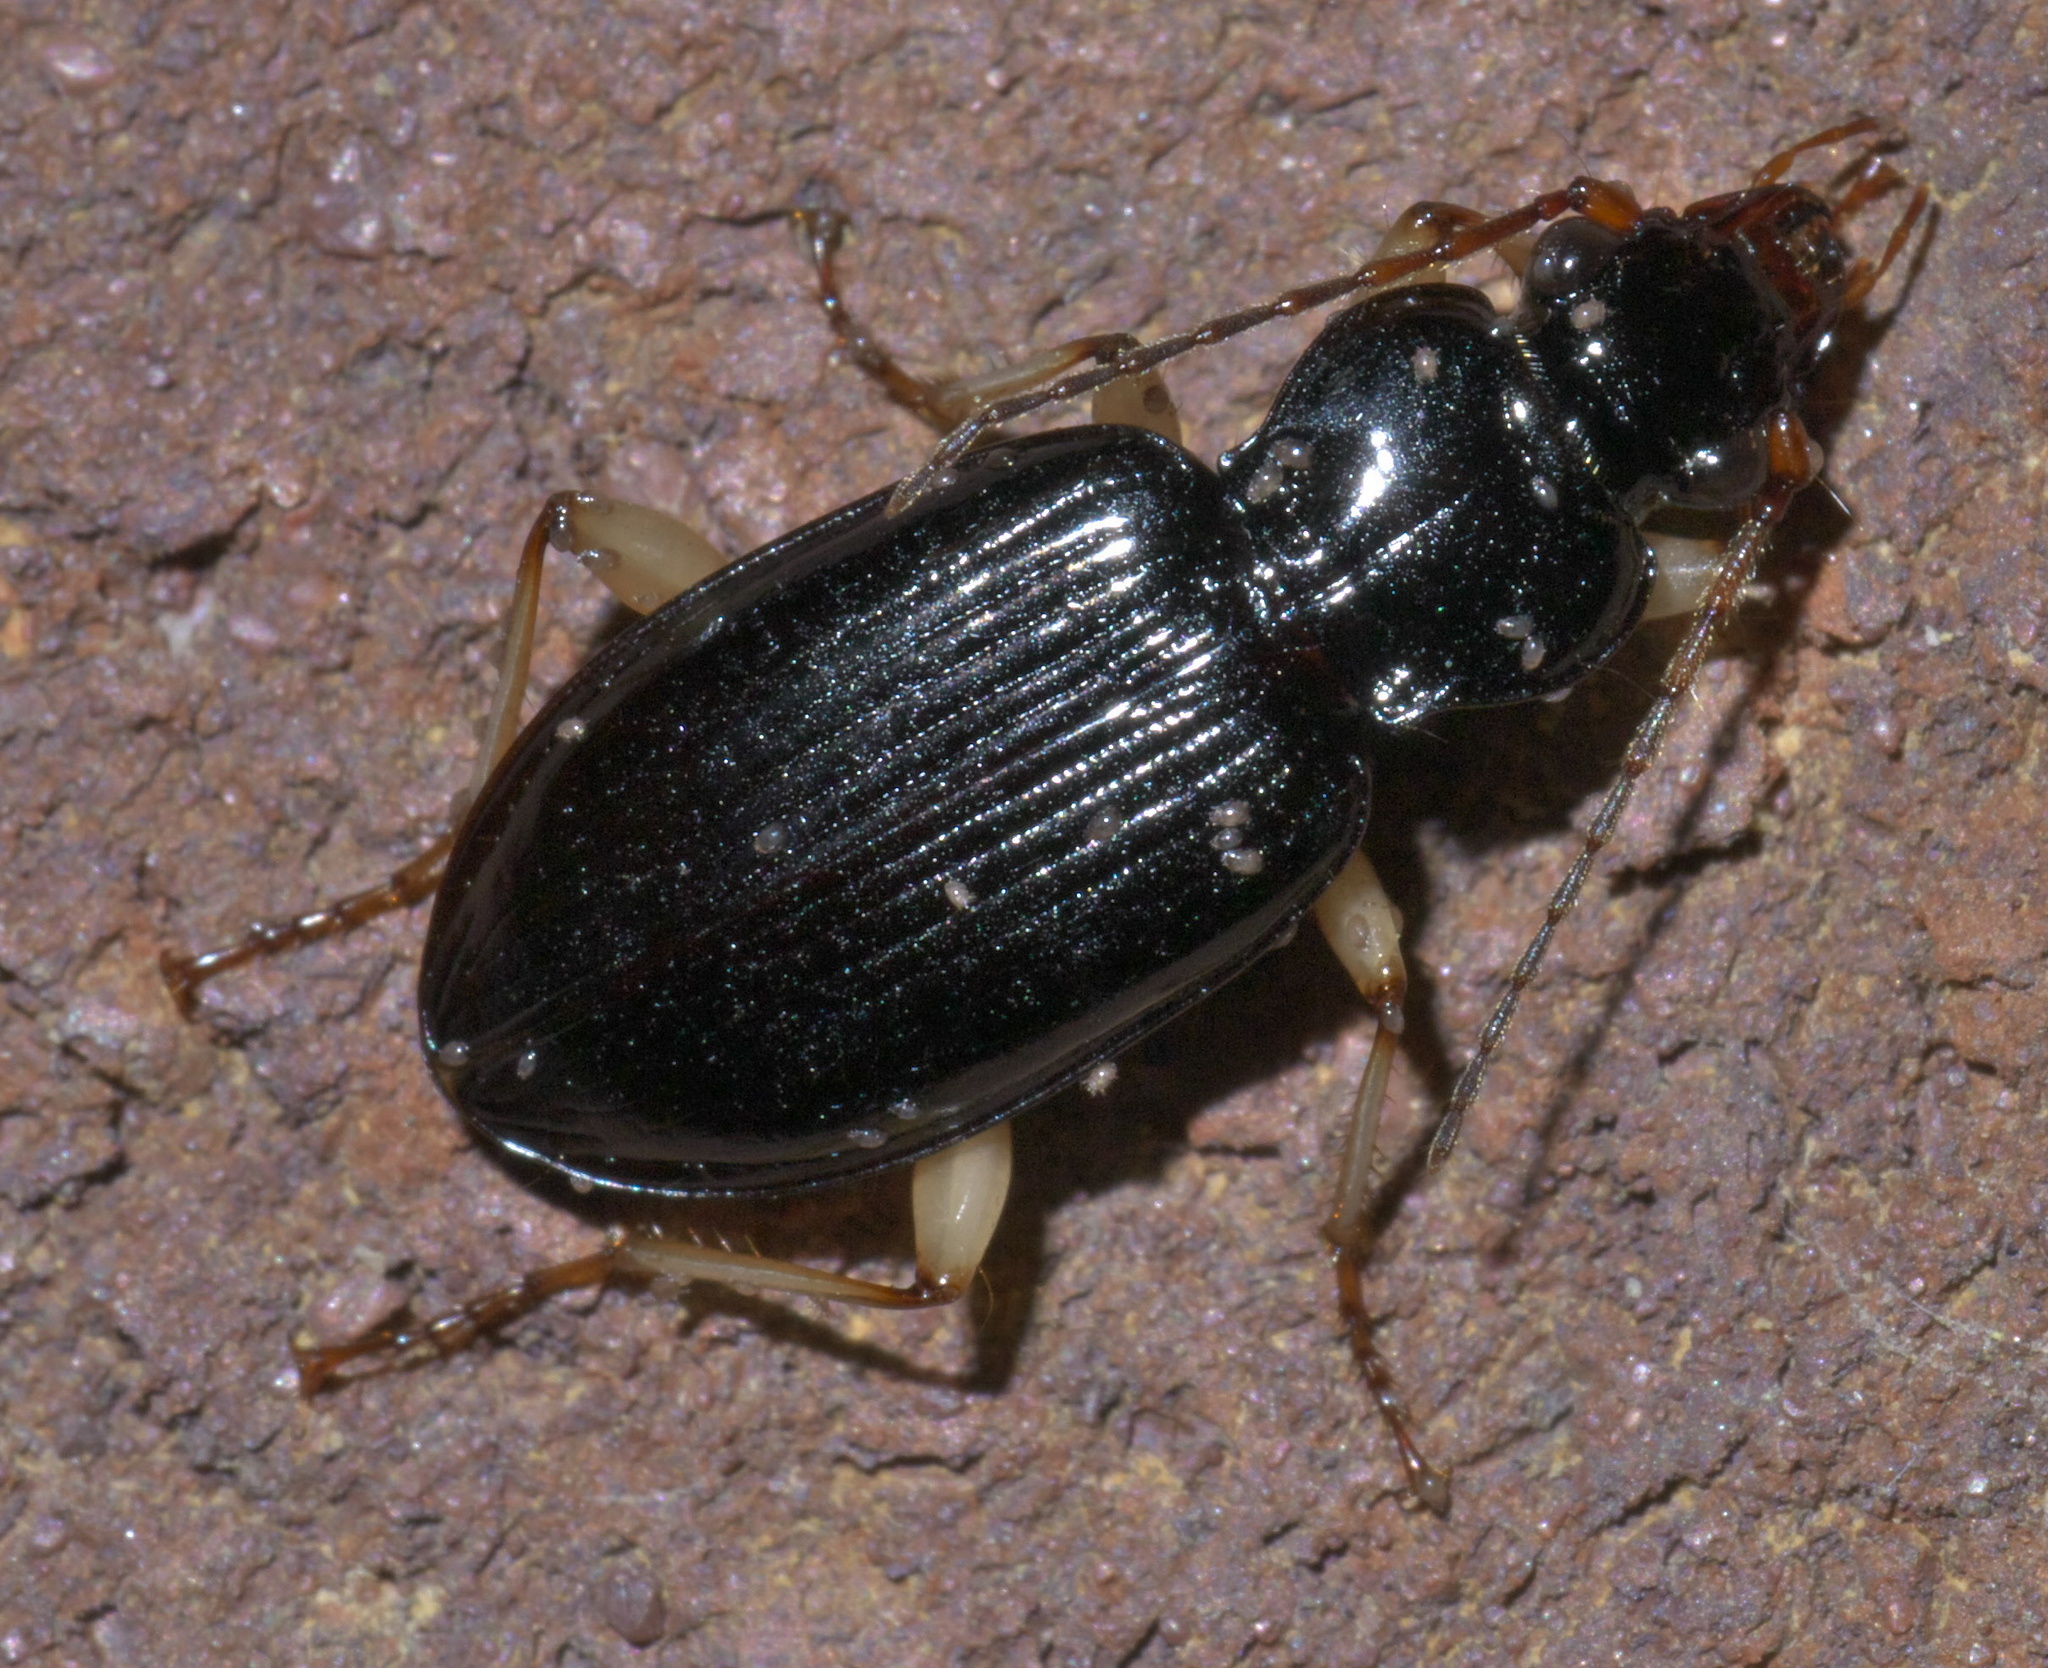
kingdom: Animalia
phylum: Arthropoda
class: Insecta
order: Coleoptera
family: Carabidae
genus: Patrobus
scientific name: Patrobus longicornis
